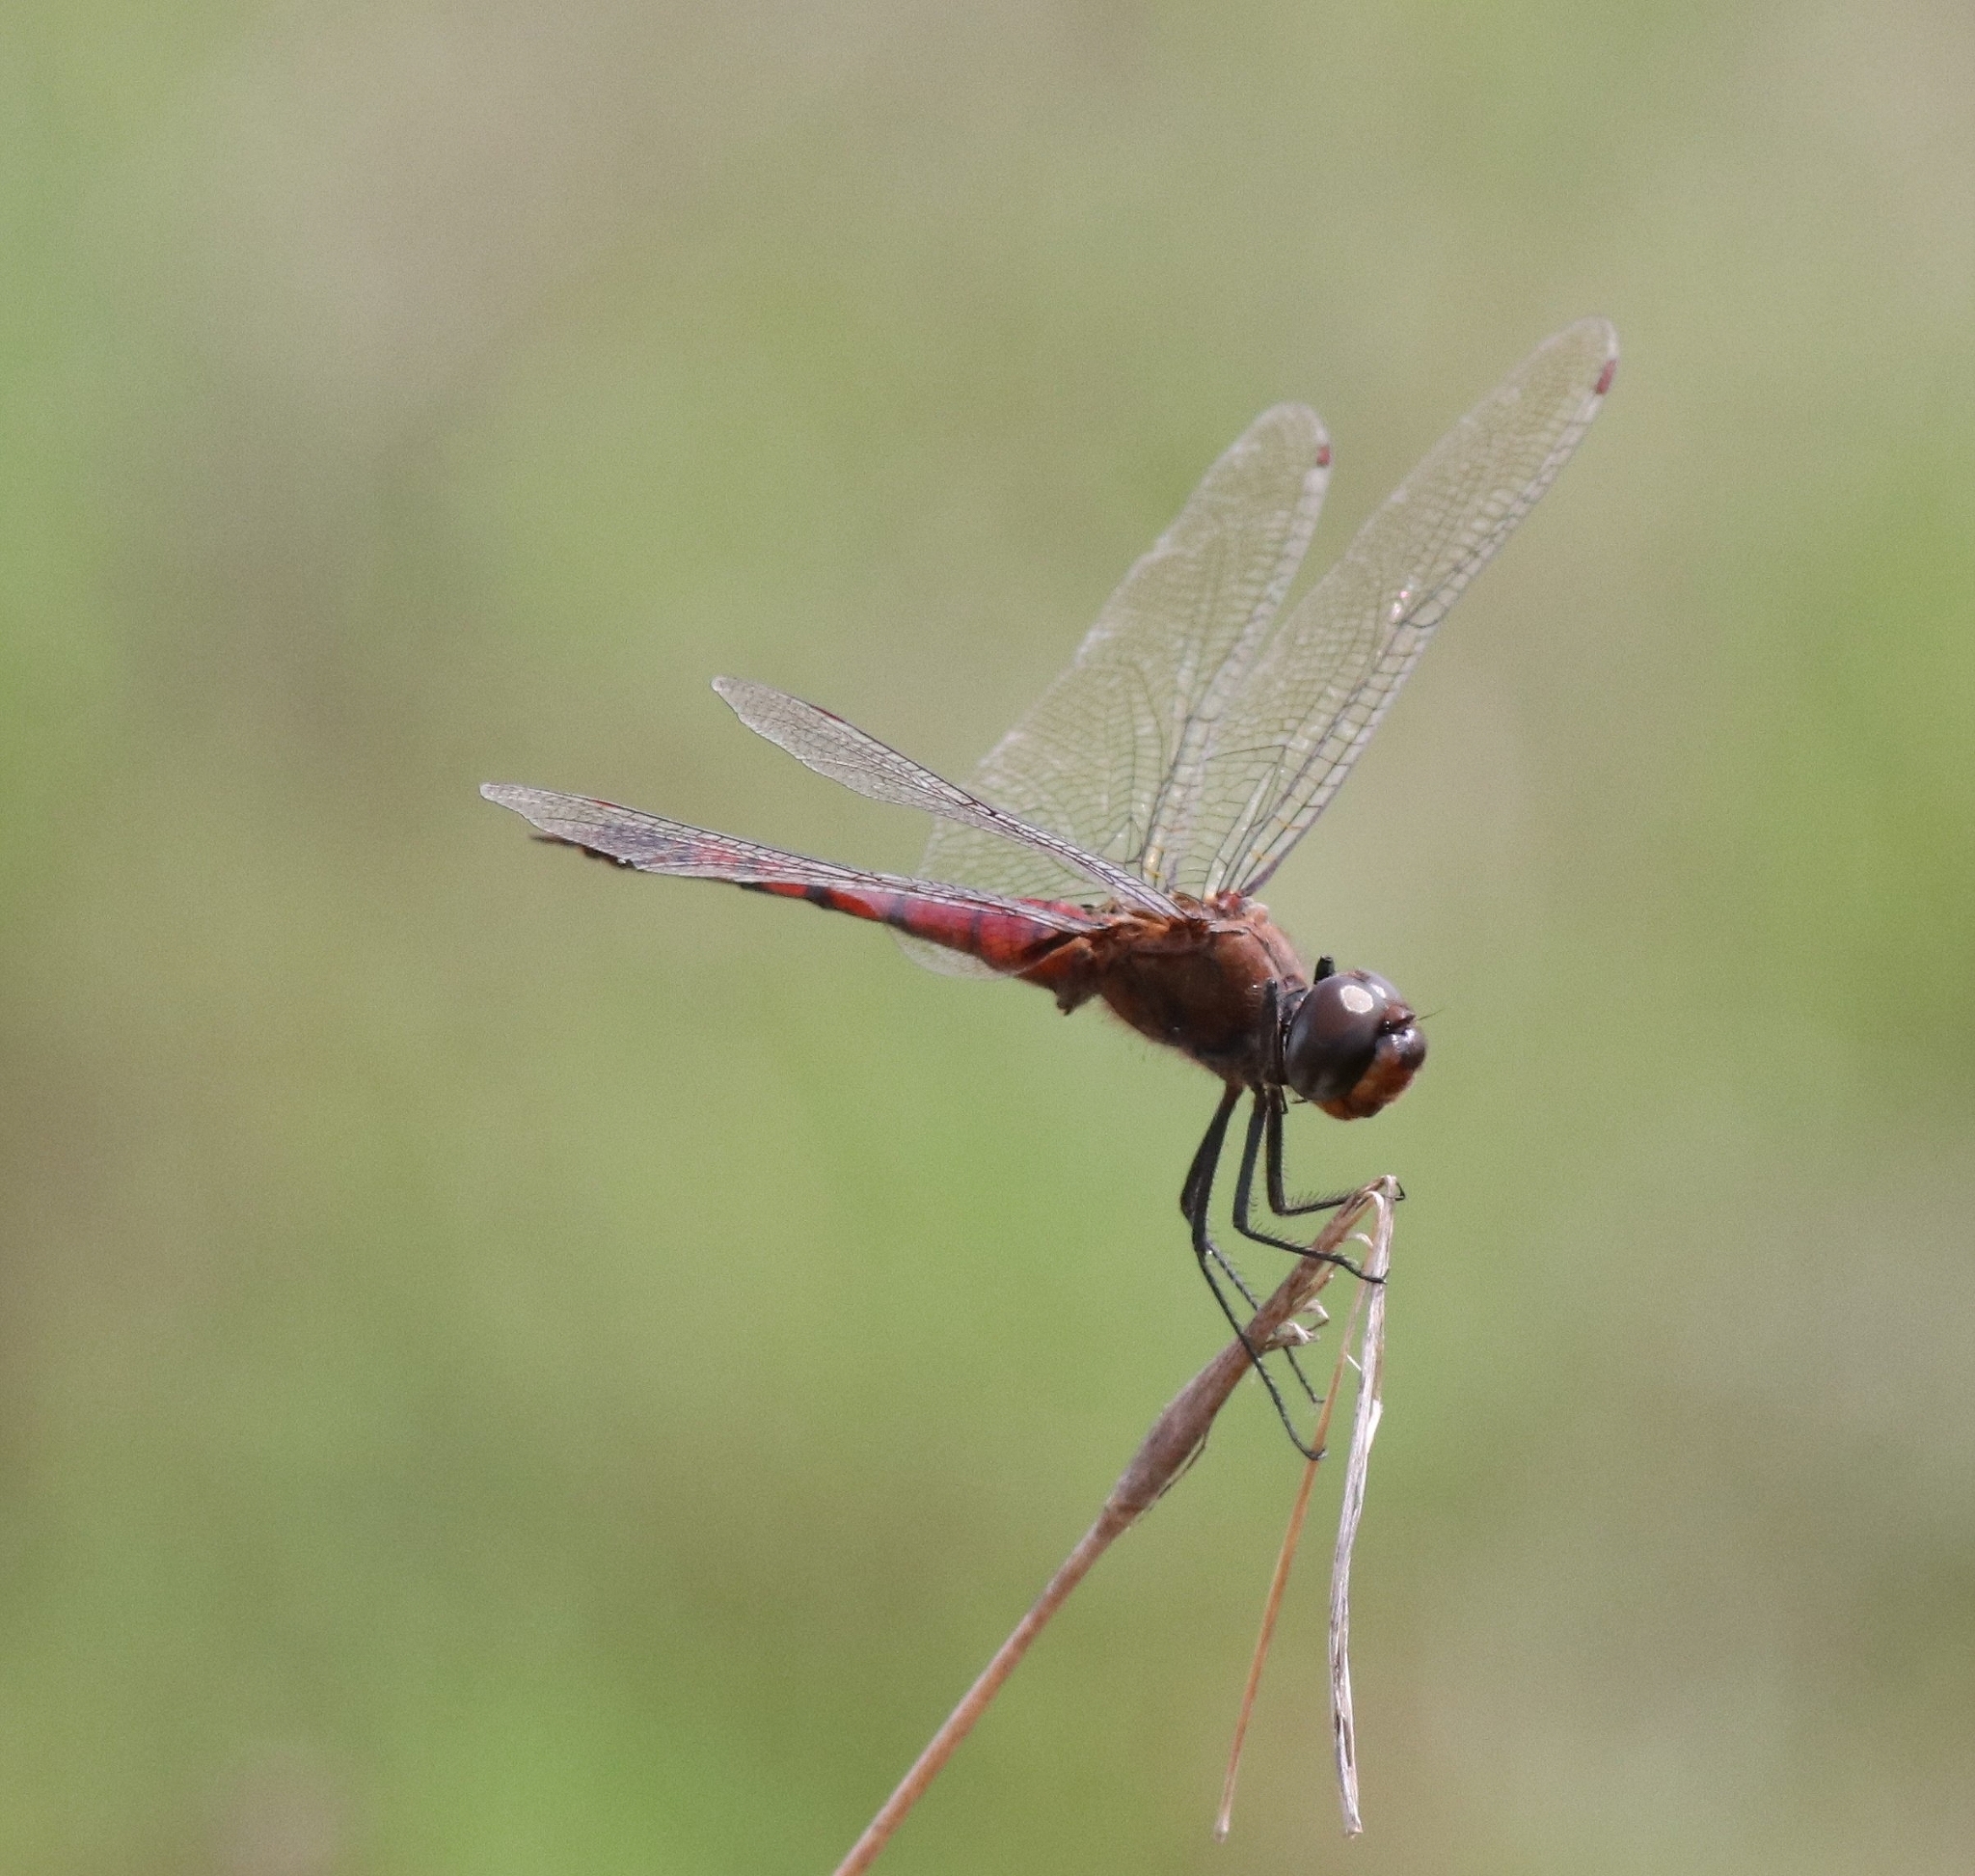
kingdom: Animalia
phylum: Arthropoda
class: Insecta
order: Odonata
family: Libellulidae
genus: Tramea
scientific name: Tramea limbata
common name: Ferruginous glider
